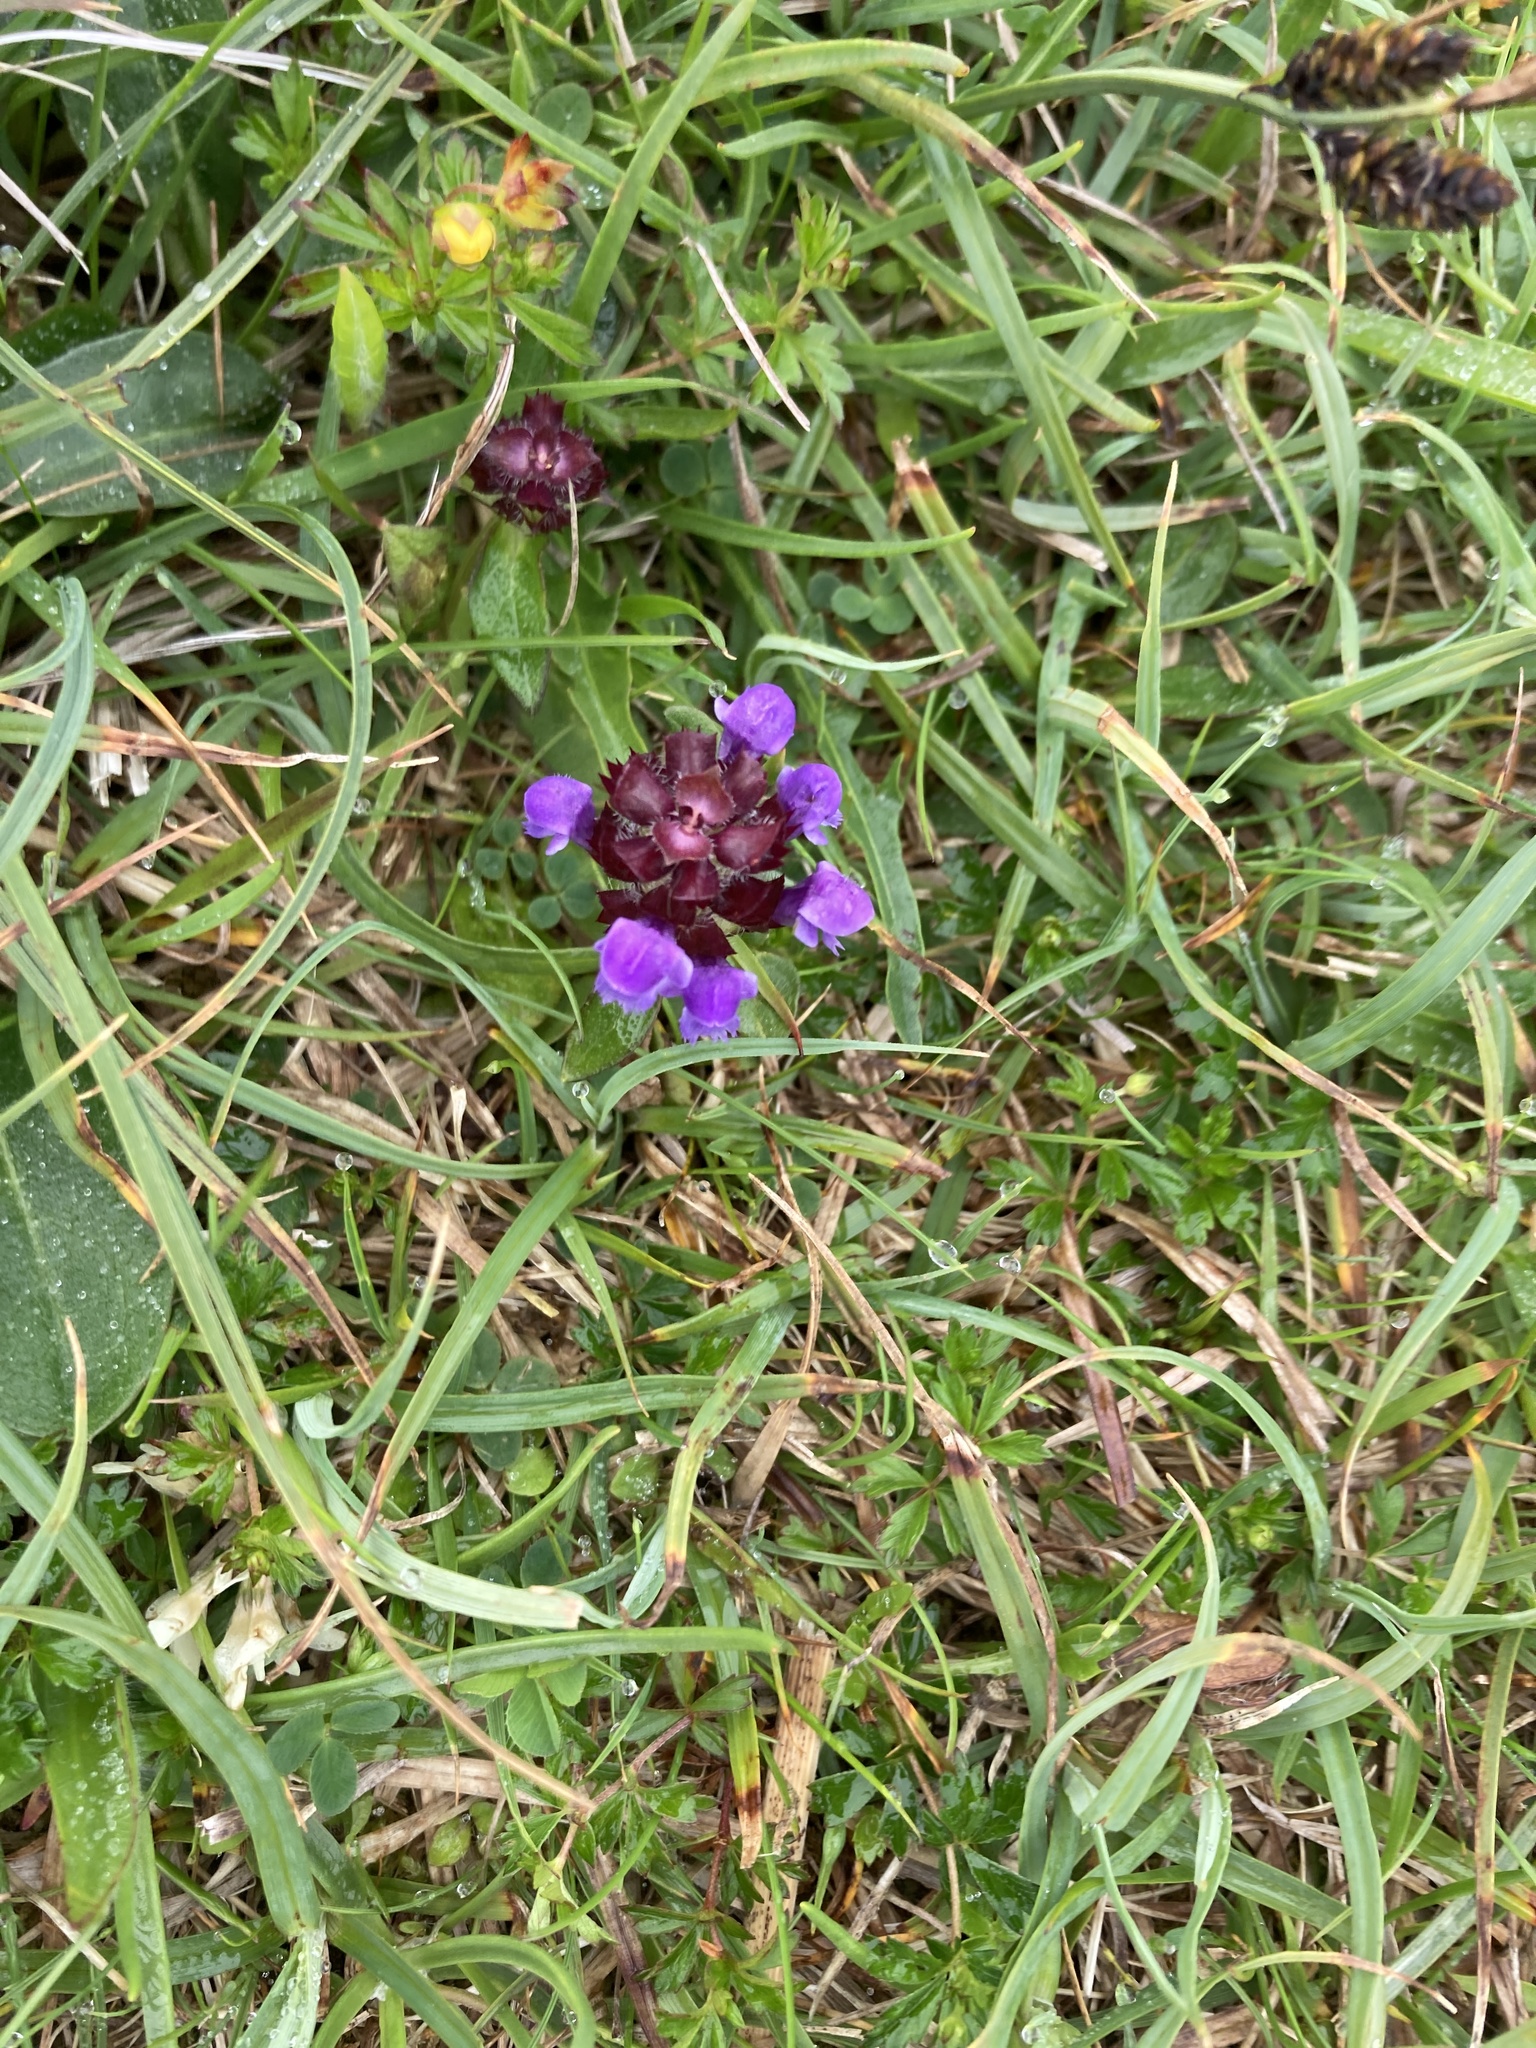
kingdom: Plantae
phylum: Tracheophyta
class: Magnoliopsida
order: Lamiales
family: Lamiaceae
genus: Prunella
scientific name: Prunella vulgaris
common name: Heal-all
